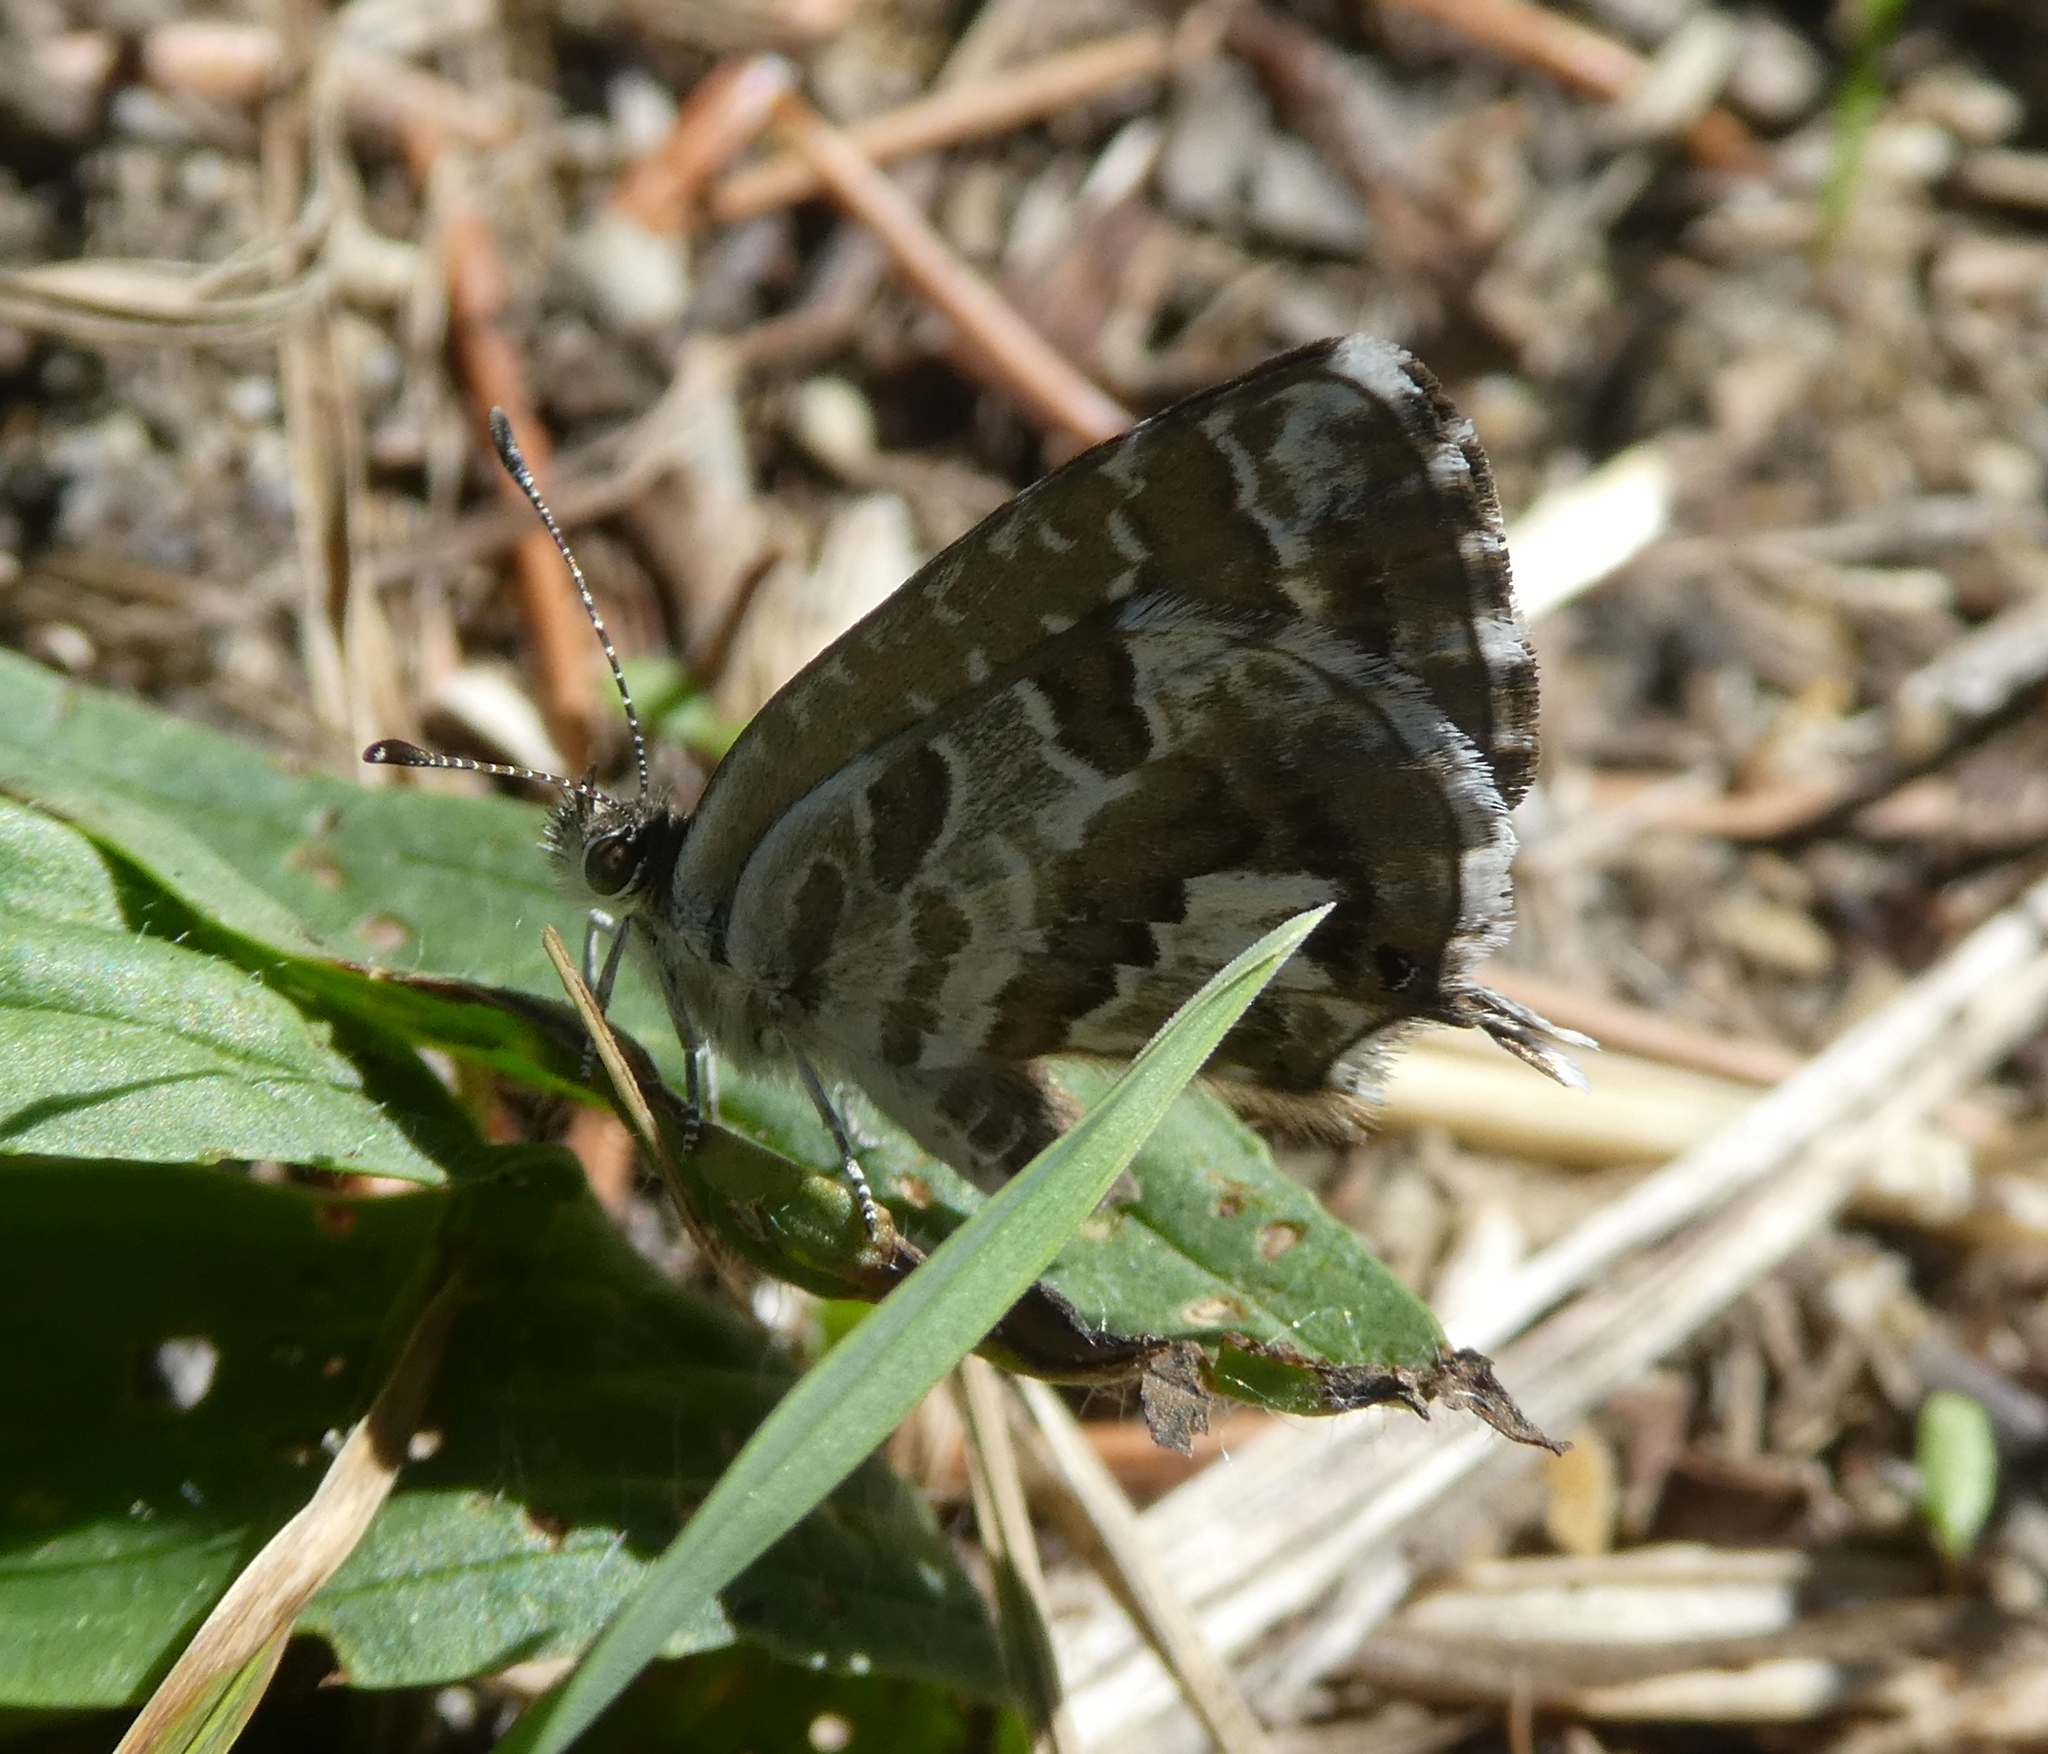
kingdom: Animalia
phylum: Arthropoda
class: Insecta
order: Lepidoptera
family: Lycaenidae
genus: Cacyreus
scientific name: Cacyreus marshalli
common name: Geranium bronze
